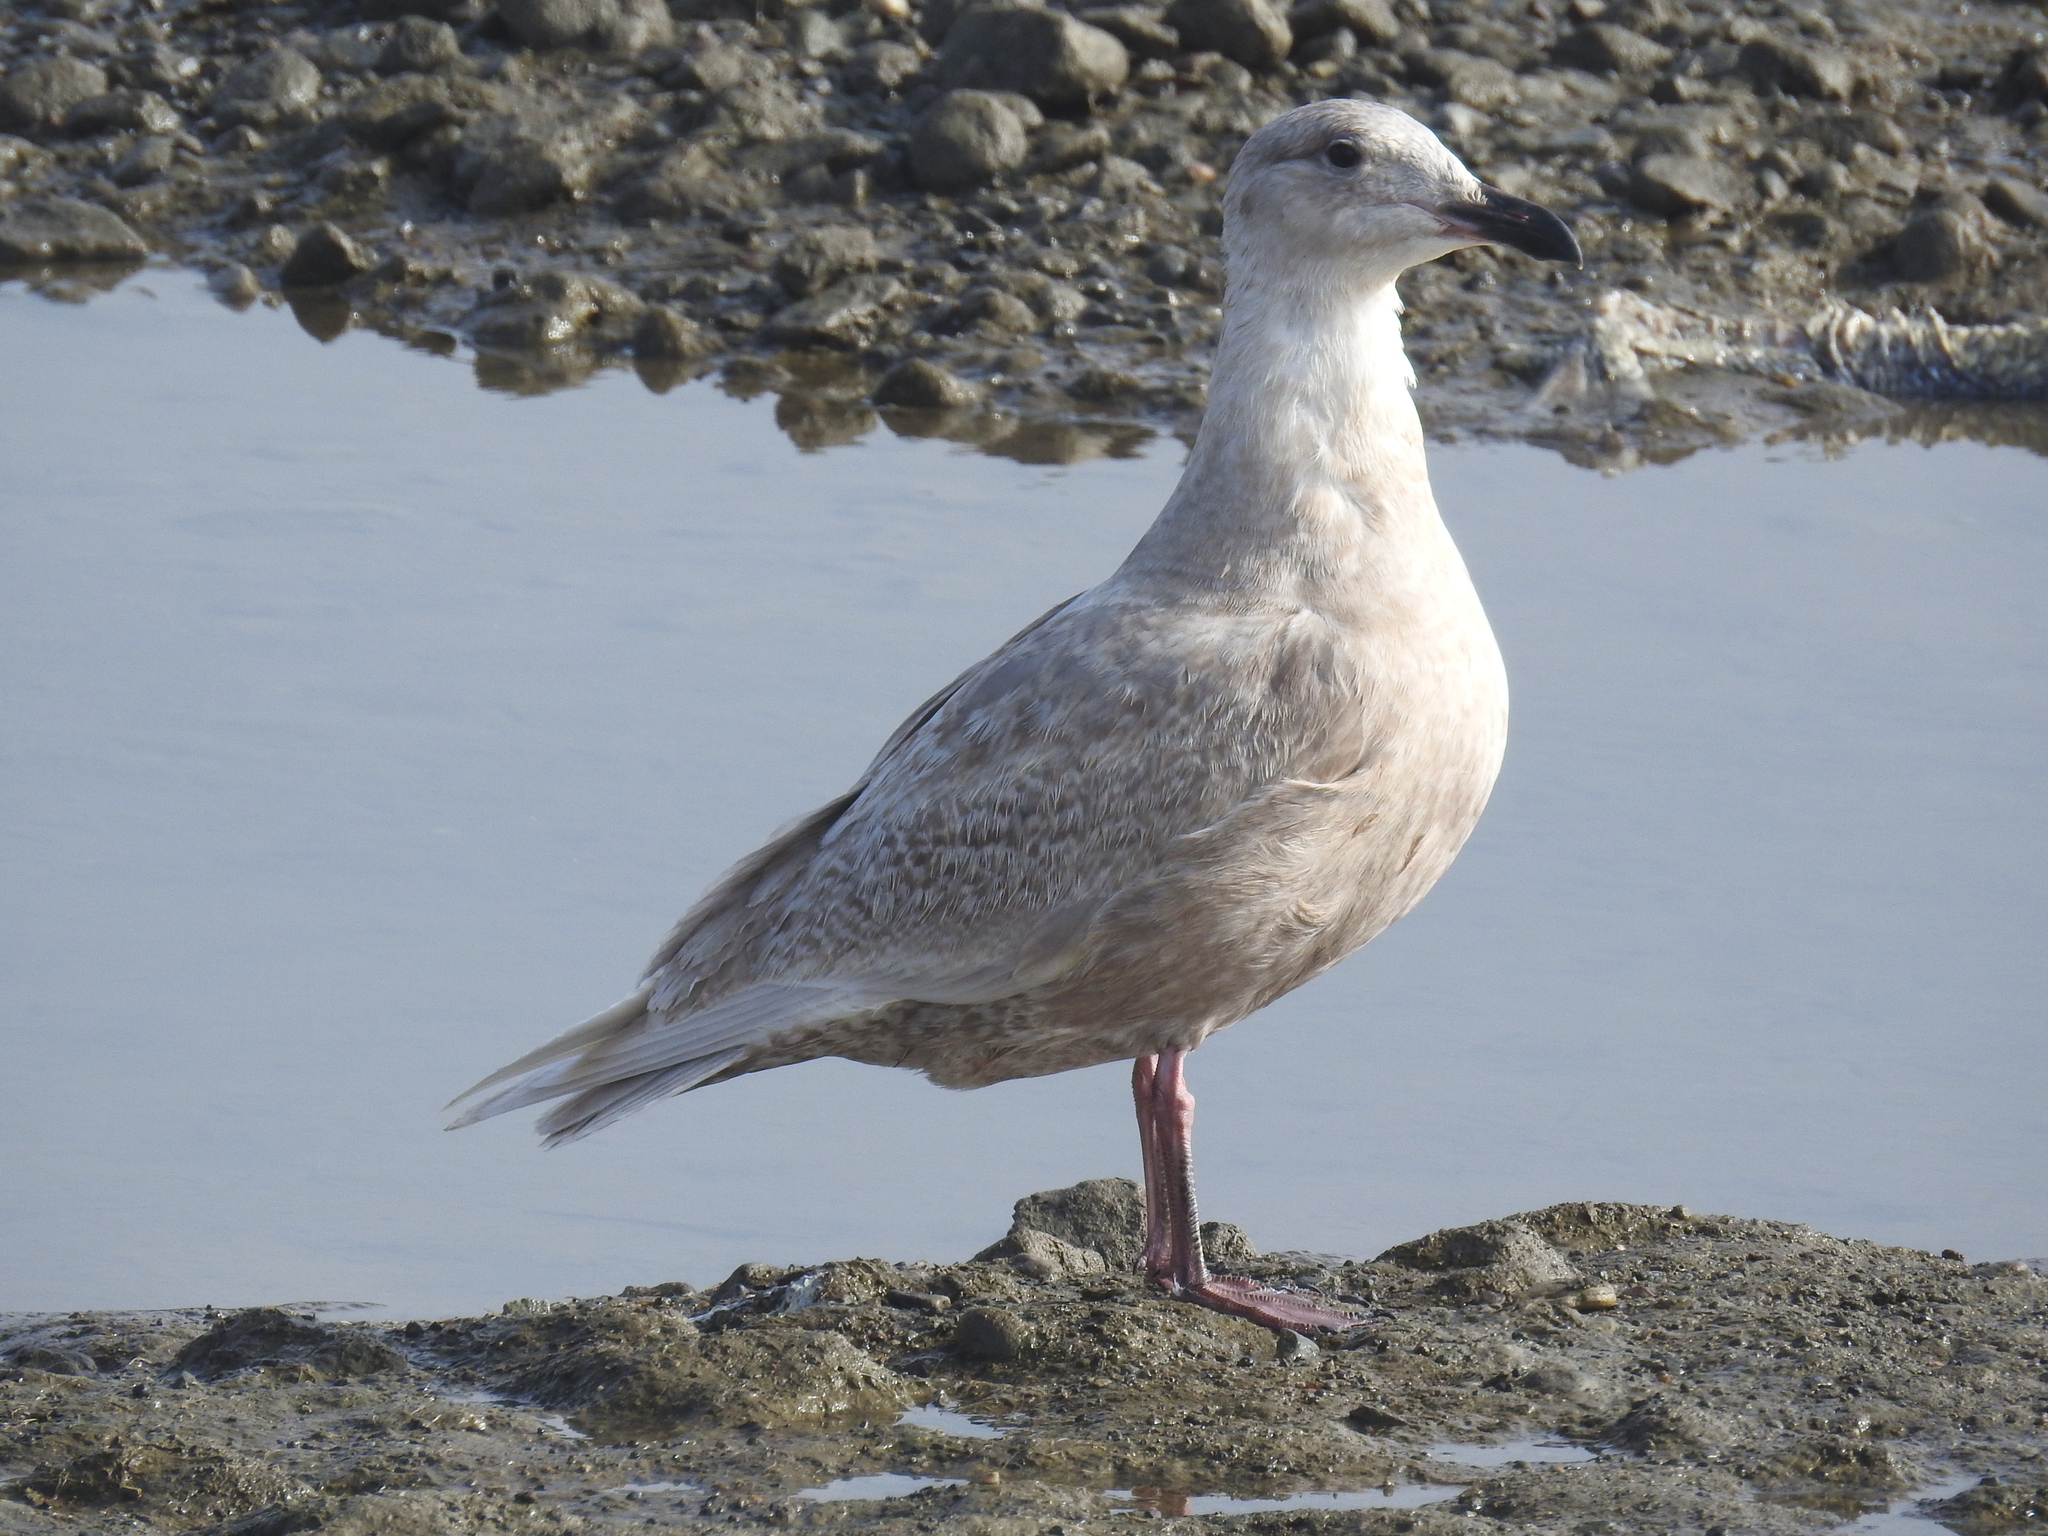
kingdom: Animalia
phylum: Chordata
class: Aves
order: Charadriiformes
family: Laridae
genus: Larus
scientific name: Larus glaucescens
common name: Glaucous-winged gull
